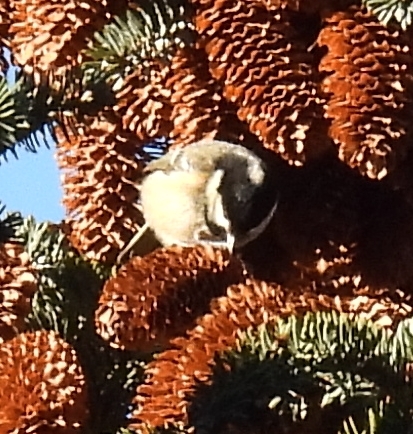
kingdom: Animalia
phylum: Chordata
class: Aves
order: Passeriformes
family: Paridae
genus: Periparus
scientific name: Periparus ater
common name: Coal tit
